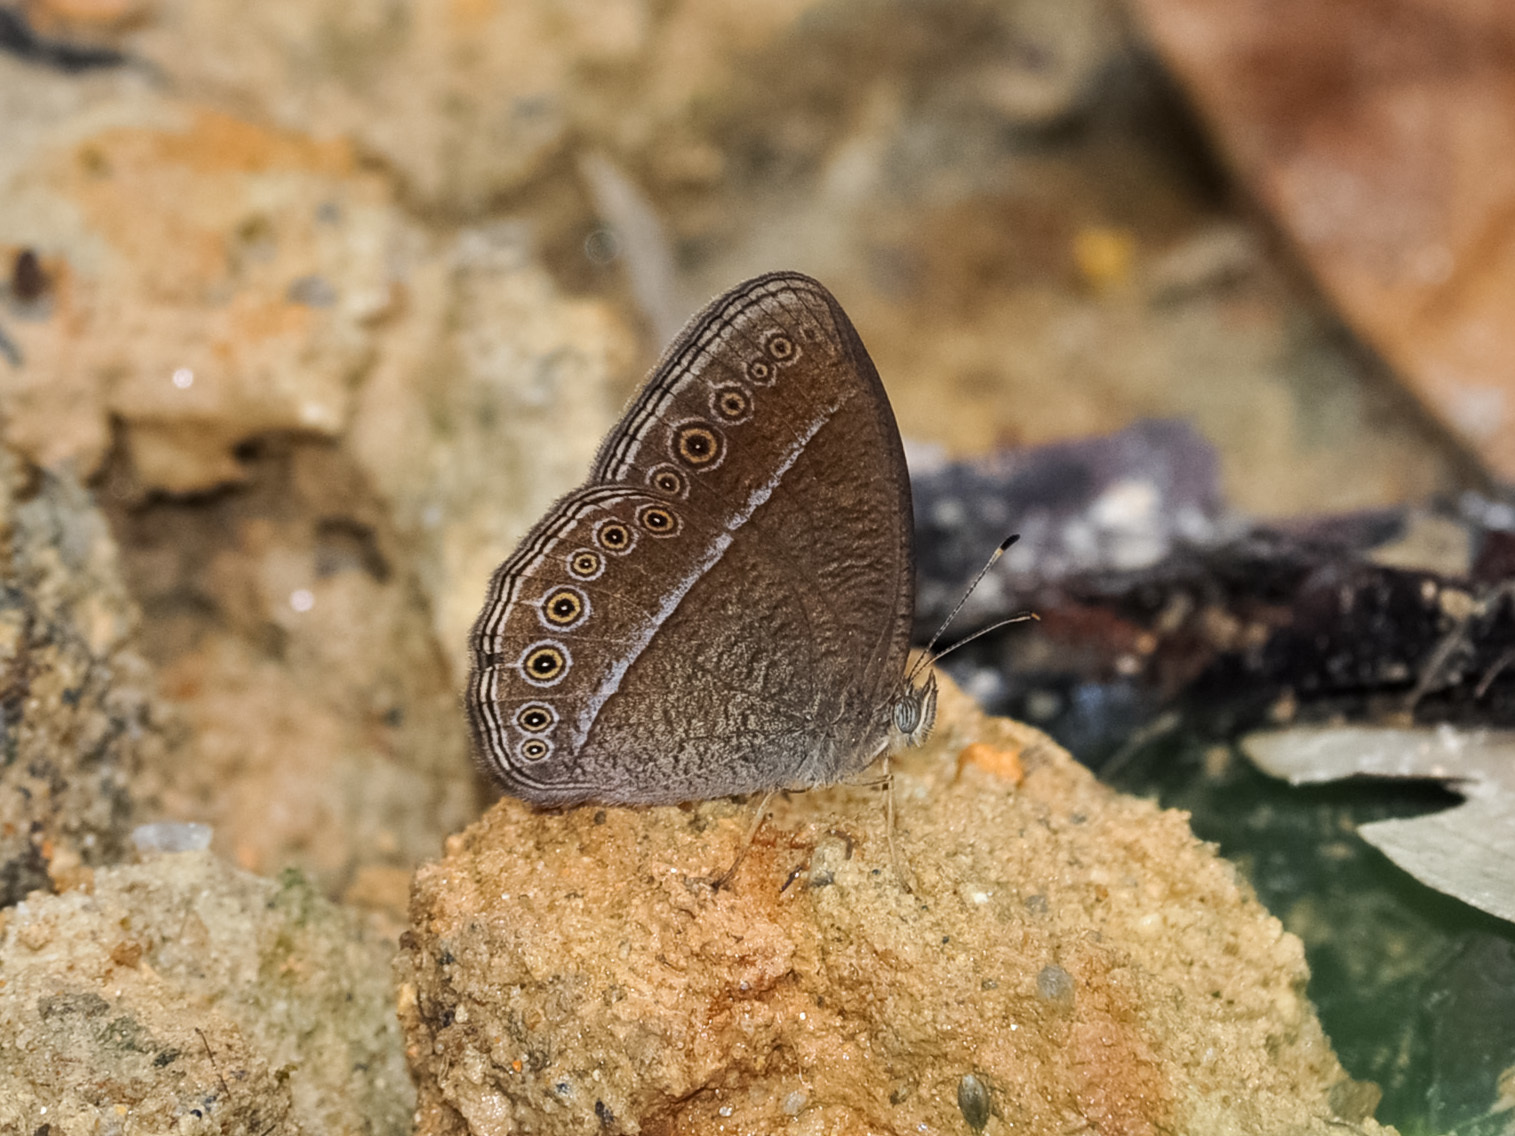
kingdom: Animalia
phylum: Arthropoda
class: Insecta
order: Lepidoptera
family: Nymphalidae
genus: Mycalesis
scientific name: Mycalesis Telinga janardana
